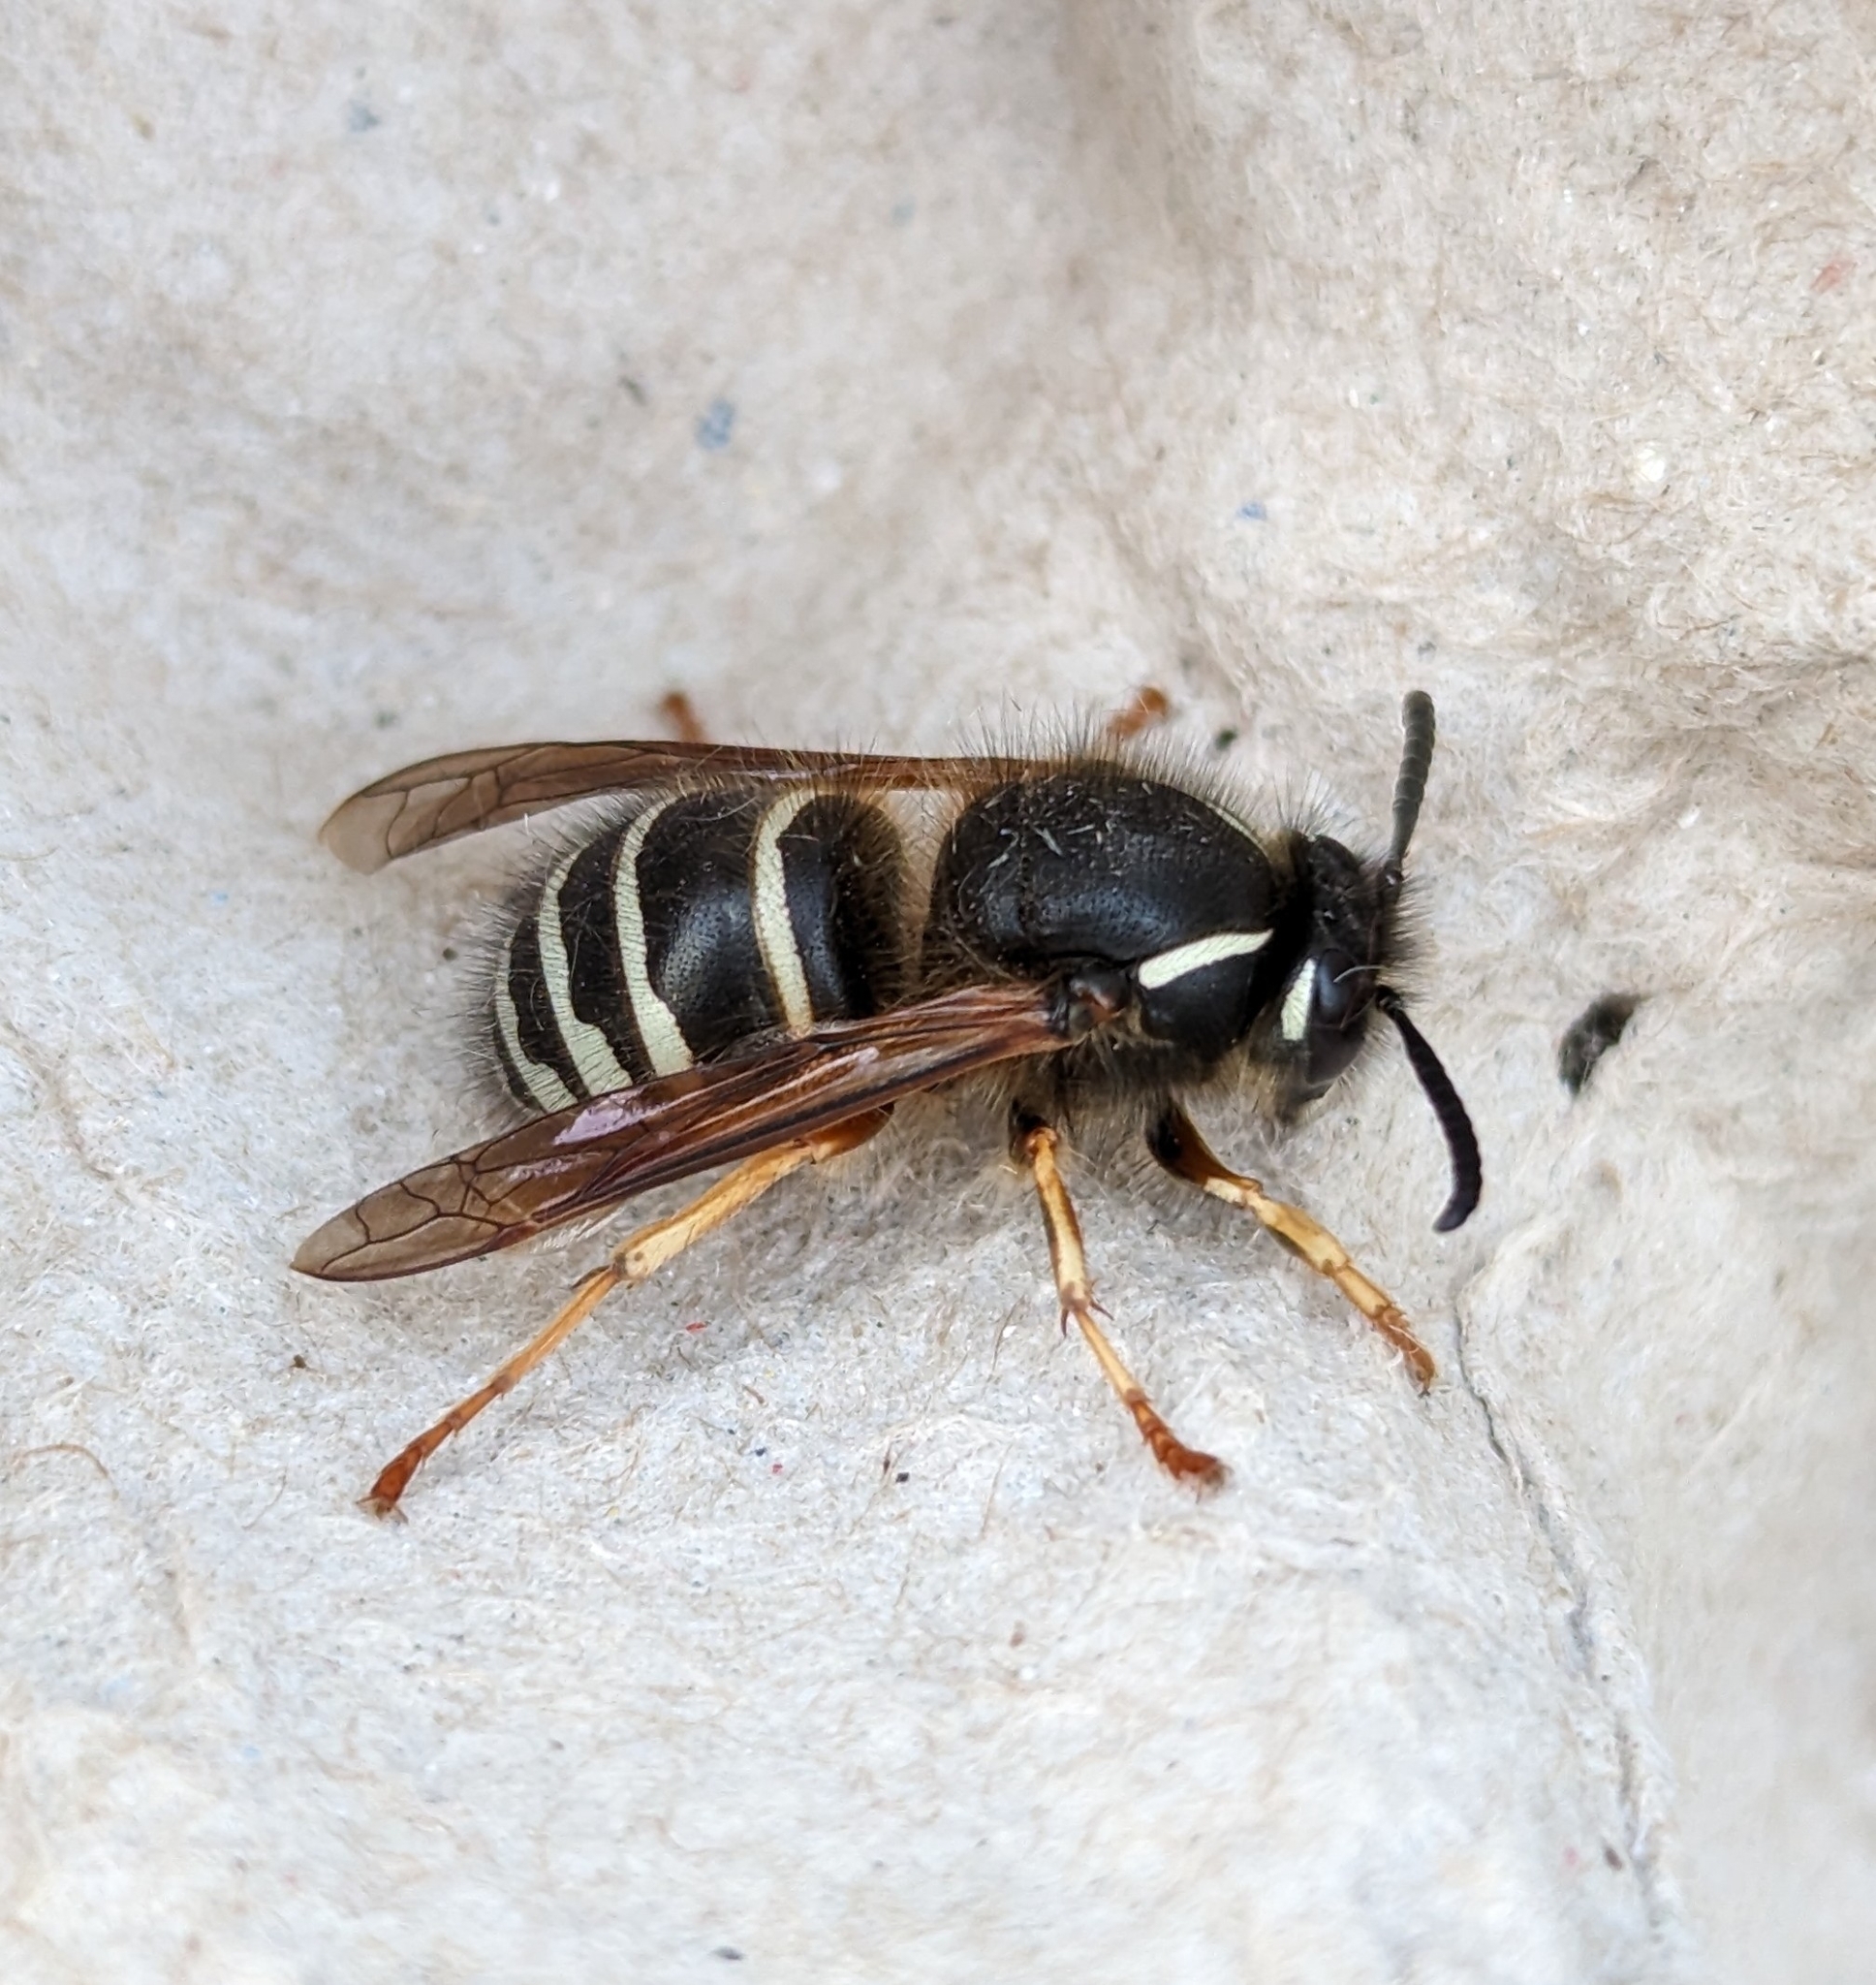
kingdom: Animalia
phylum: Arthropoda
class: Insecta
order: Hymenoptera
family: Vespidae
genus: Dolichovespula
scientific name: Dolichovespula norwegica
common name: Norwegian wasp
